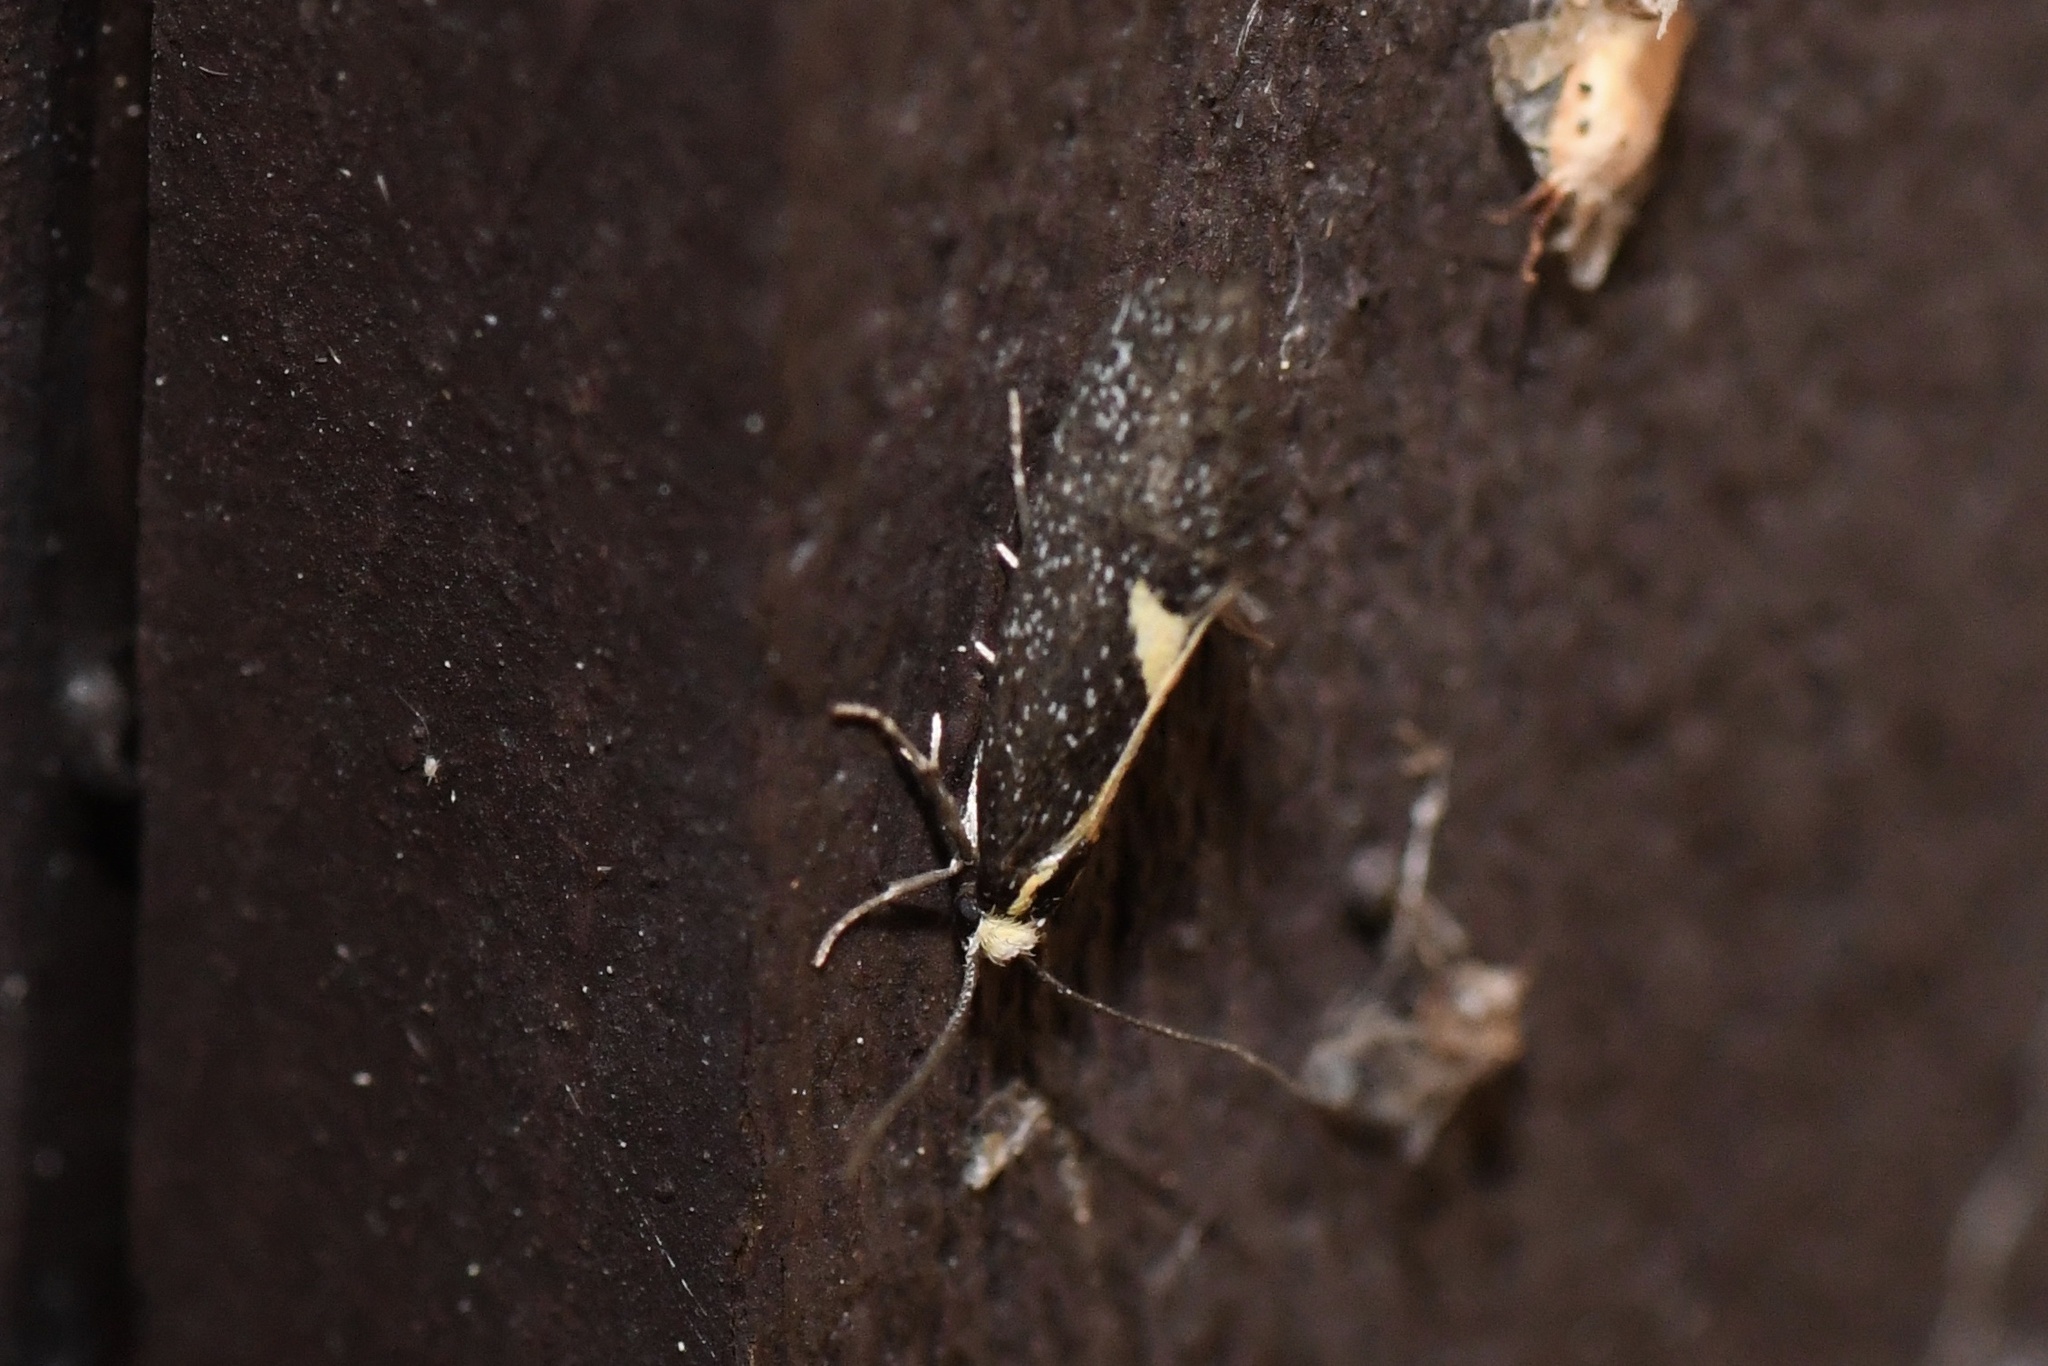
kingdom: Animalia
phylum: Arthropoda
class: Insecta
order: Lepidoptera
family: Oecophoridae
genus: Polix
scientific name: Polix coloradella
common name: Skunk moth
